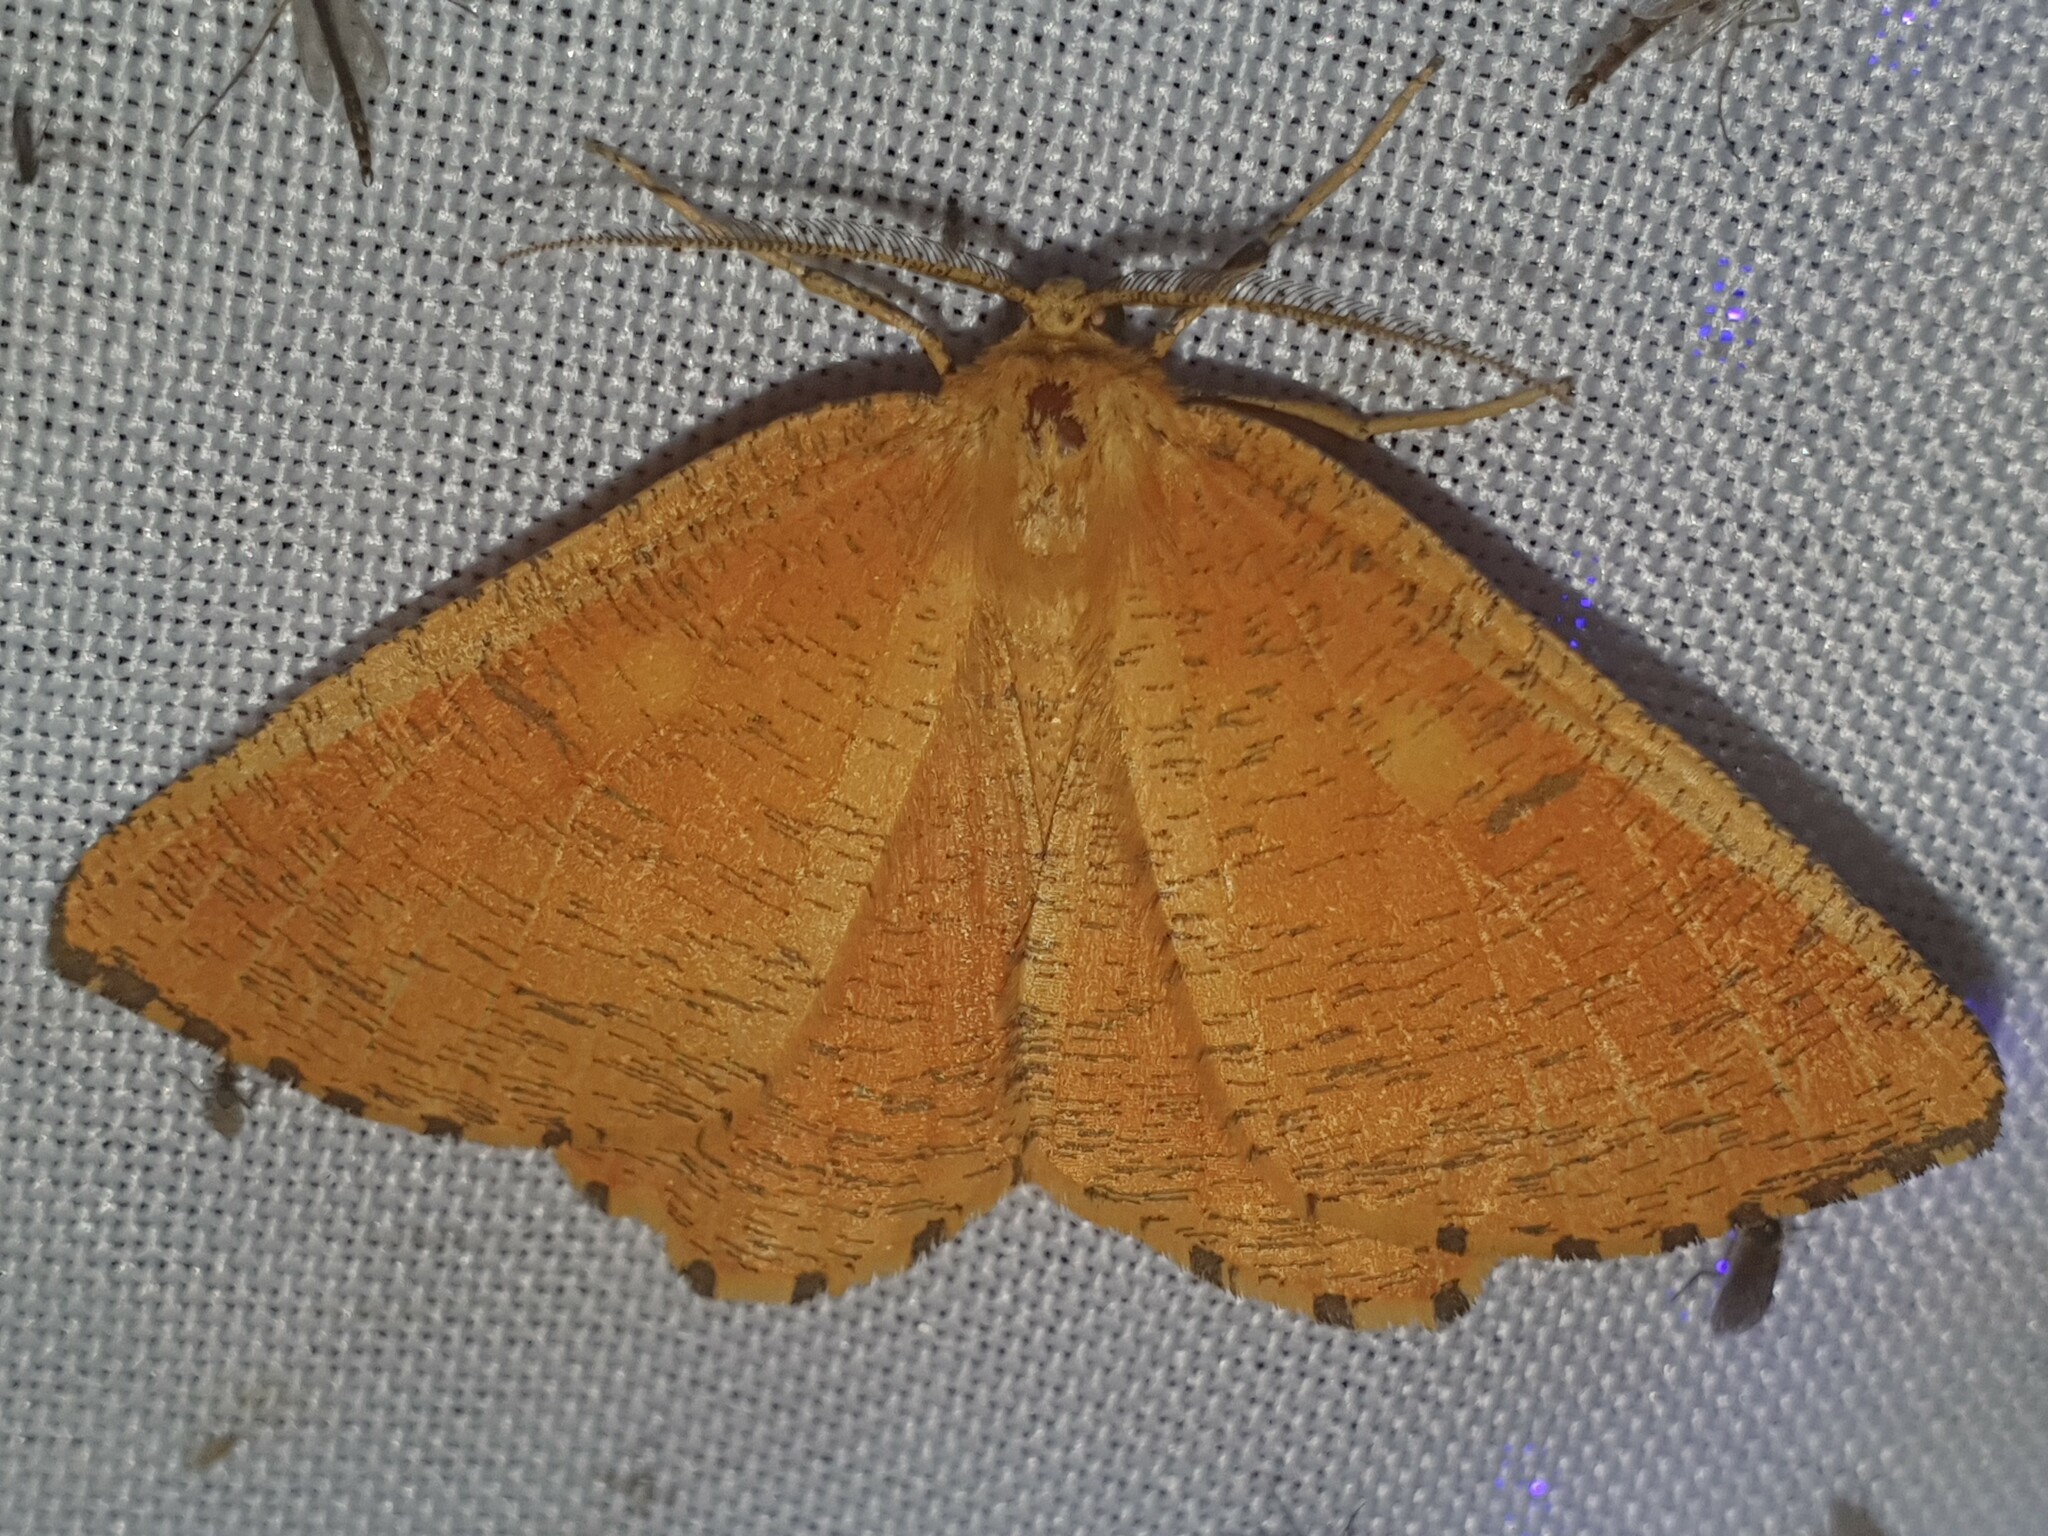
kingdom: Animalia
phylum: Arthropoda
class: Insecta
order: Lepidoptera
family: Geometridae
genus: Angerona
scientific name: Angerona prunaria
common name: Orange moth
